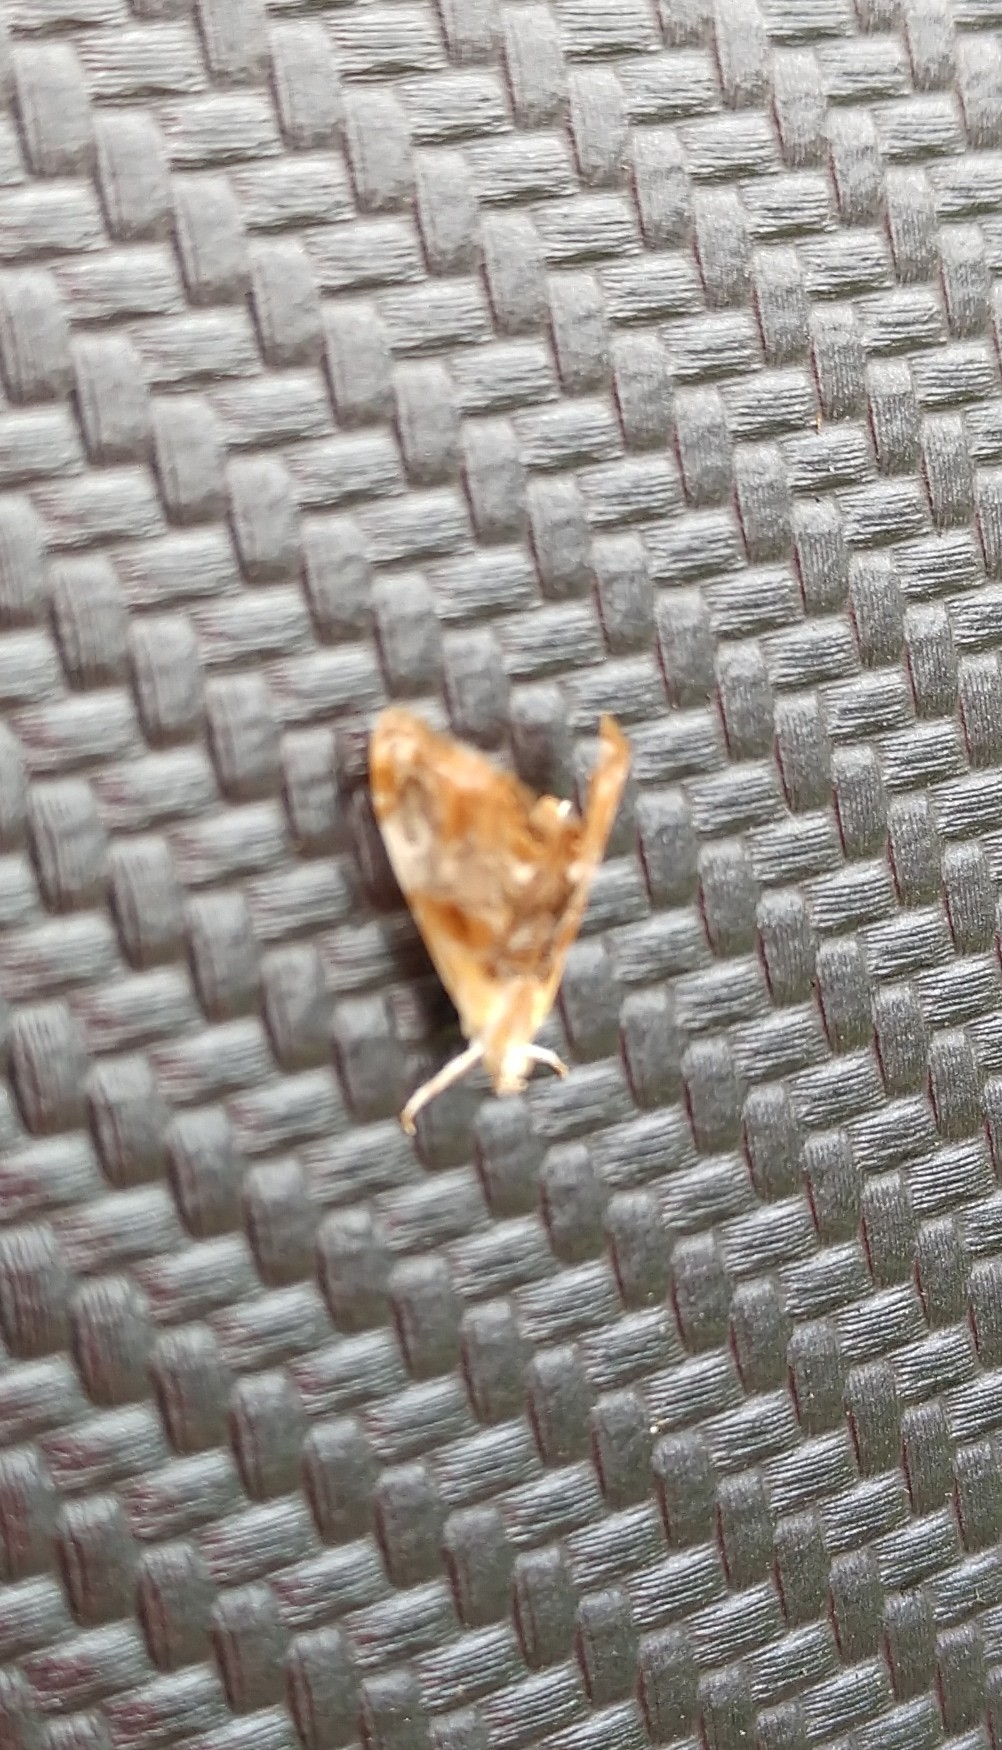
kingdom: Animalia
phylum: Arthropoda
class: Insecta
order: Lepidoptera
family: Crambidae
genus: Dicymolomia
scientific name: Dicymolomia julianalis
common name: Julia's dicymolomia moth
